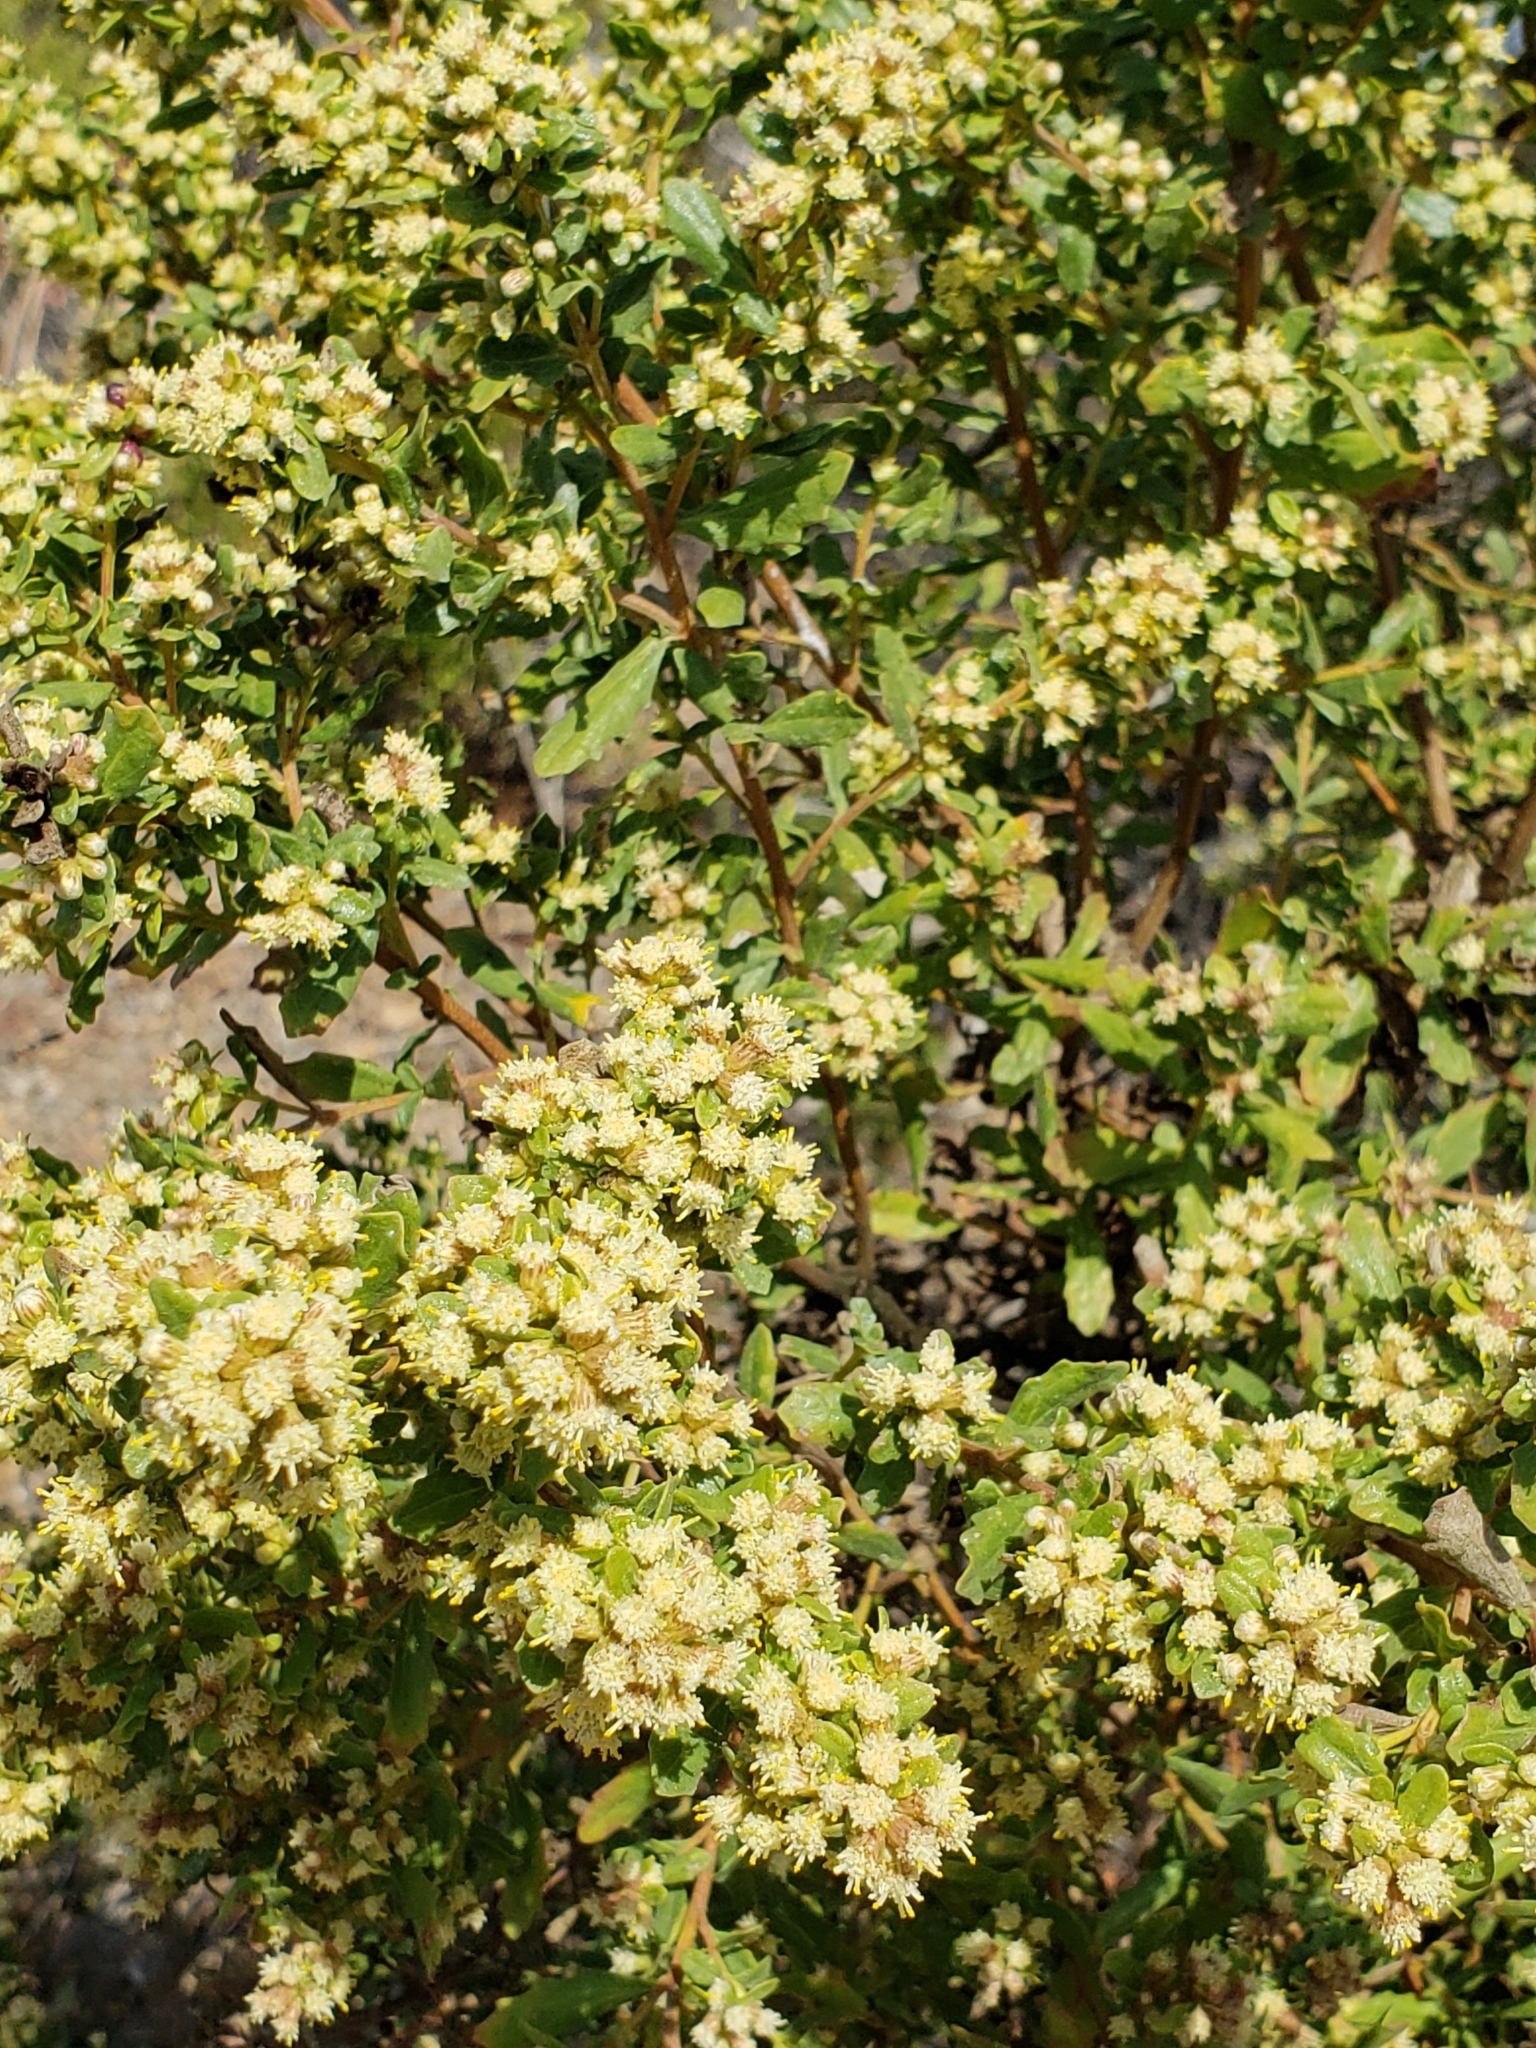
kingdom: Plantae
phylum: Tracheophyta
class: Magnoliopsida
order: Asterales
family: Asteraceae
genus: Baccharis
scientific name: Baccharis pilularis
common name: Coyotebrush
